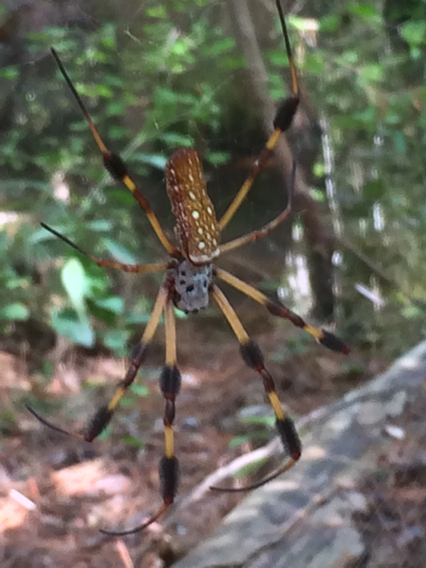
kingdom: Animalia
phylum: Arthropoda
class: Arachnida
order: Araneae
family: Araneidae
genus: Trichonephila
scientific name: Trichonephila clavipes
